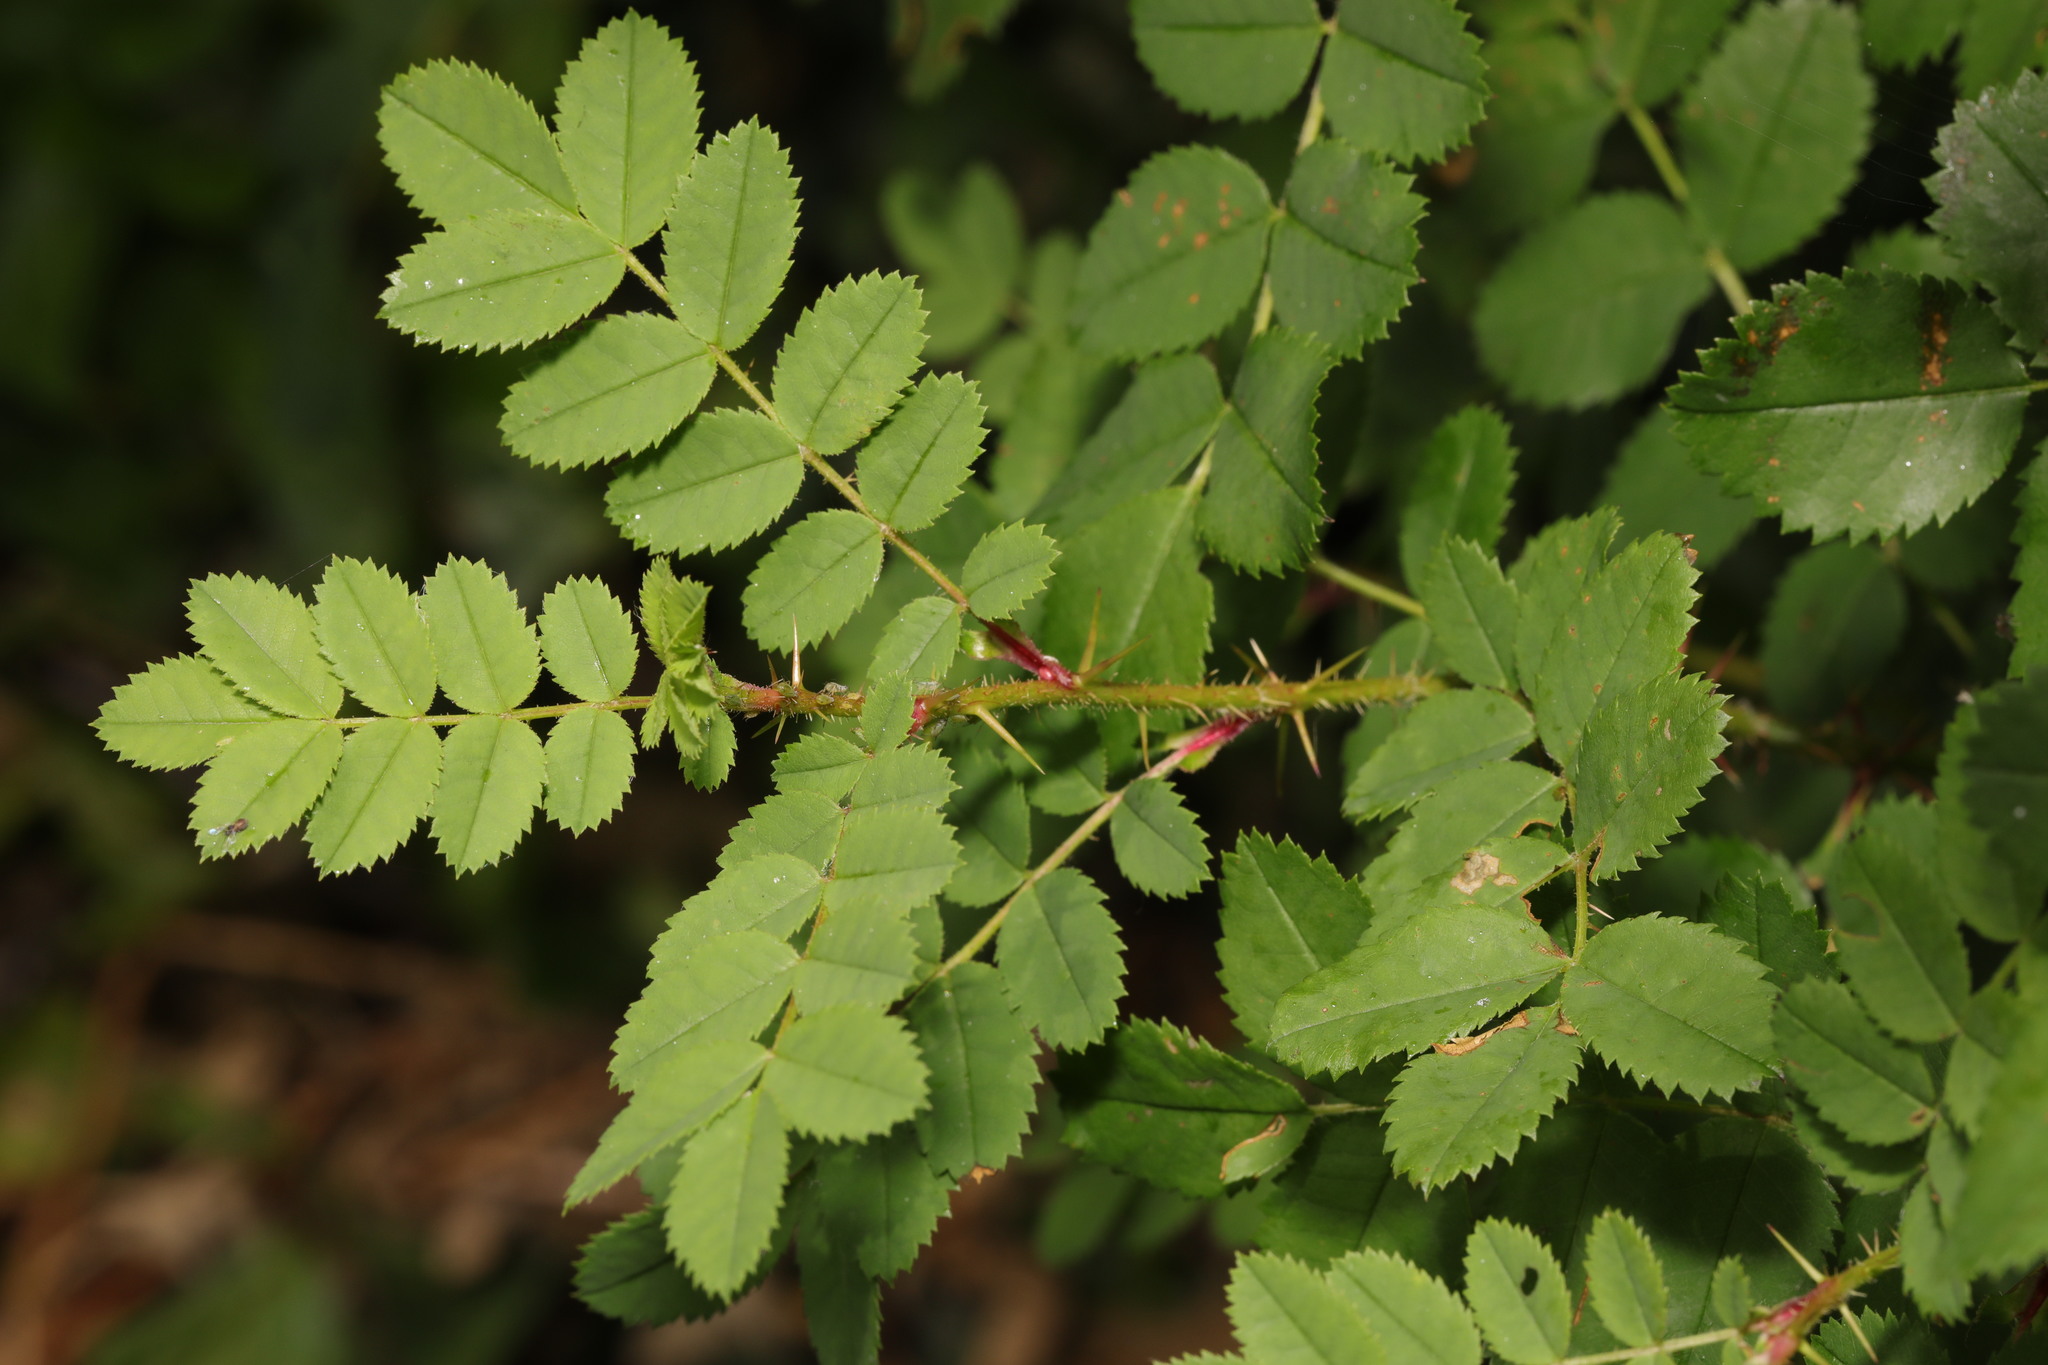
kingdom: Plantae
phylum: Tracheophyta
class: Magnoliopsida
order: Rosales
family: Rosaceae
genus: Rosa
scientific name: Rosa spinosissima
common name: Burnet rose
